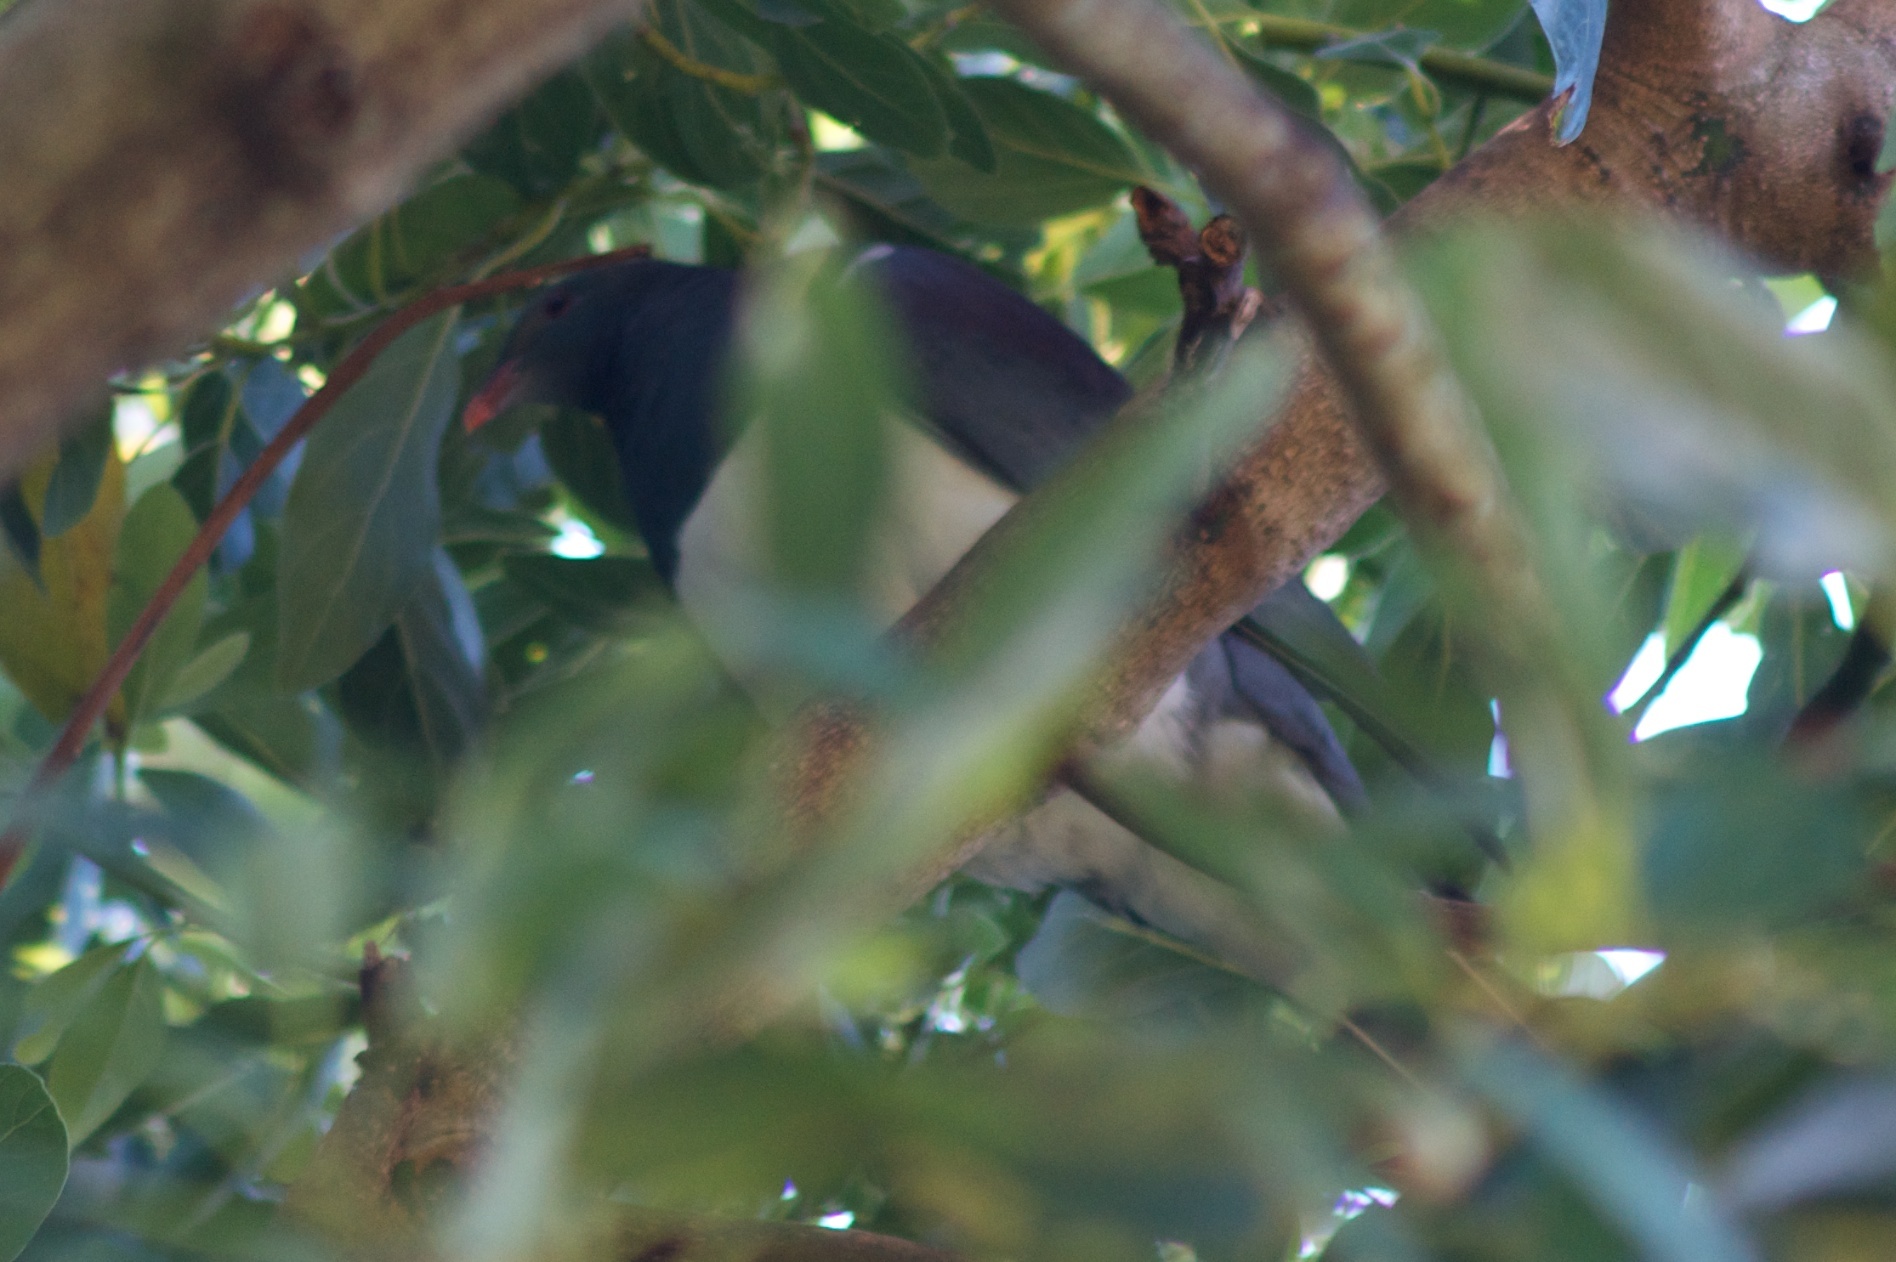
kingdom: Animalia
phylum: Chordata
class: Aves
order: Columbiformes
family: Columbidae
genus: Hemiphaga
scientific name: Hemiphaga novaeseelandiae
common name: New zealand pigeon
